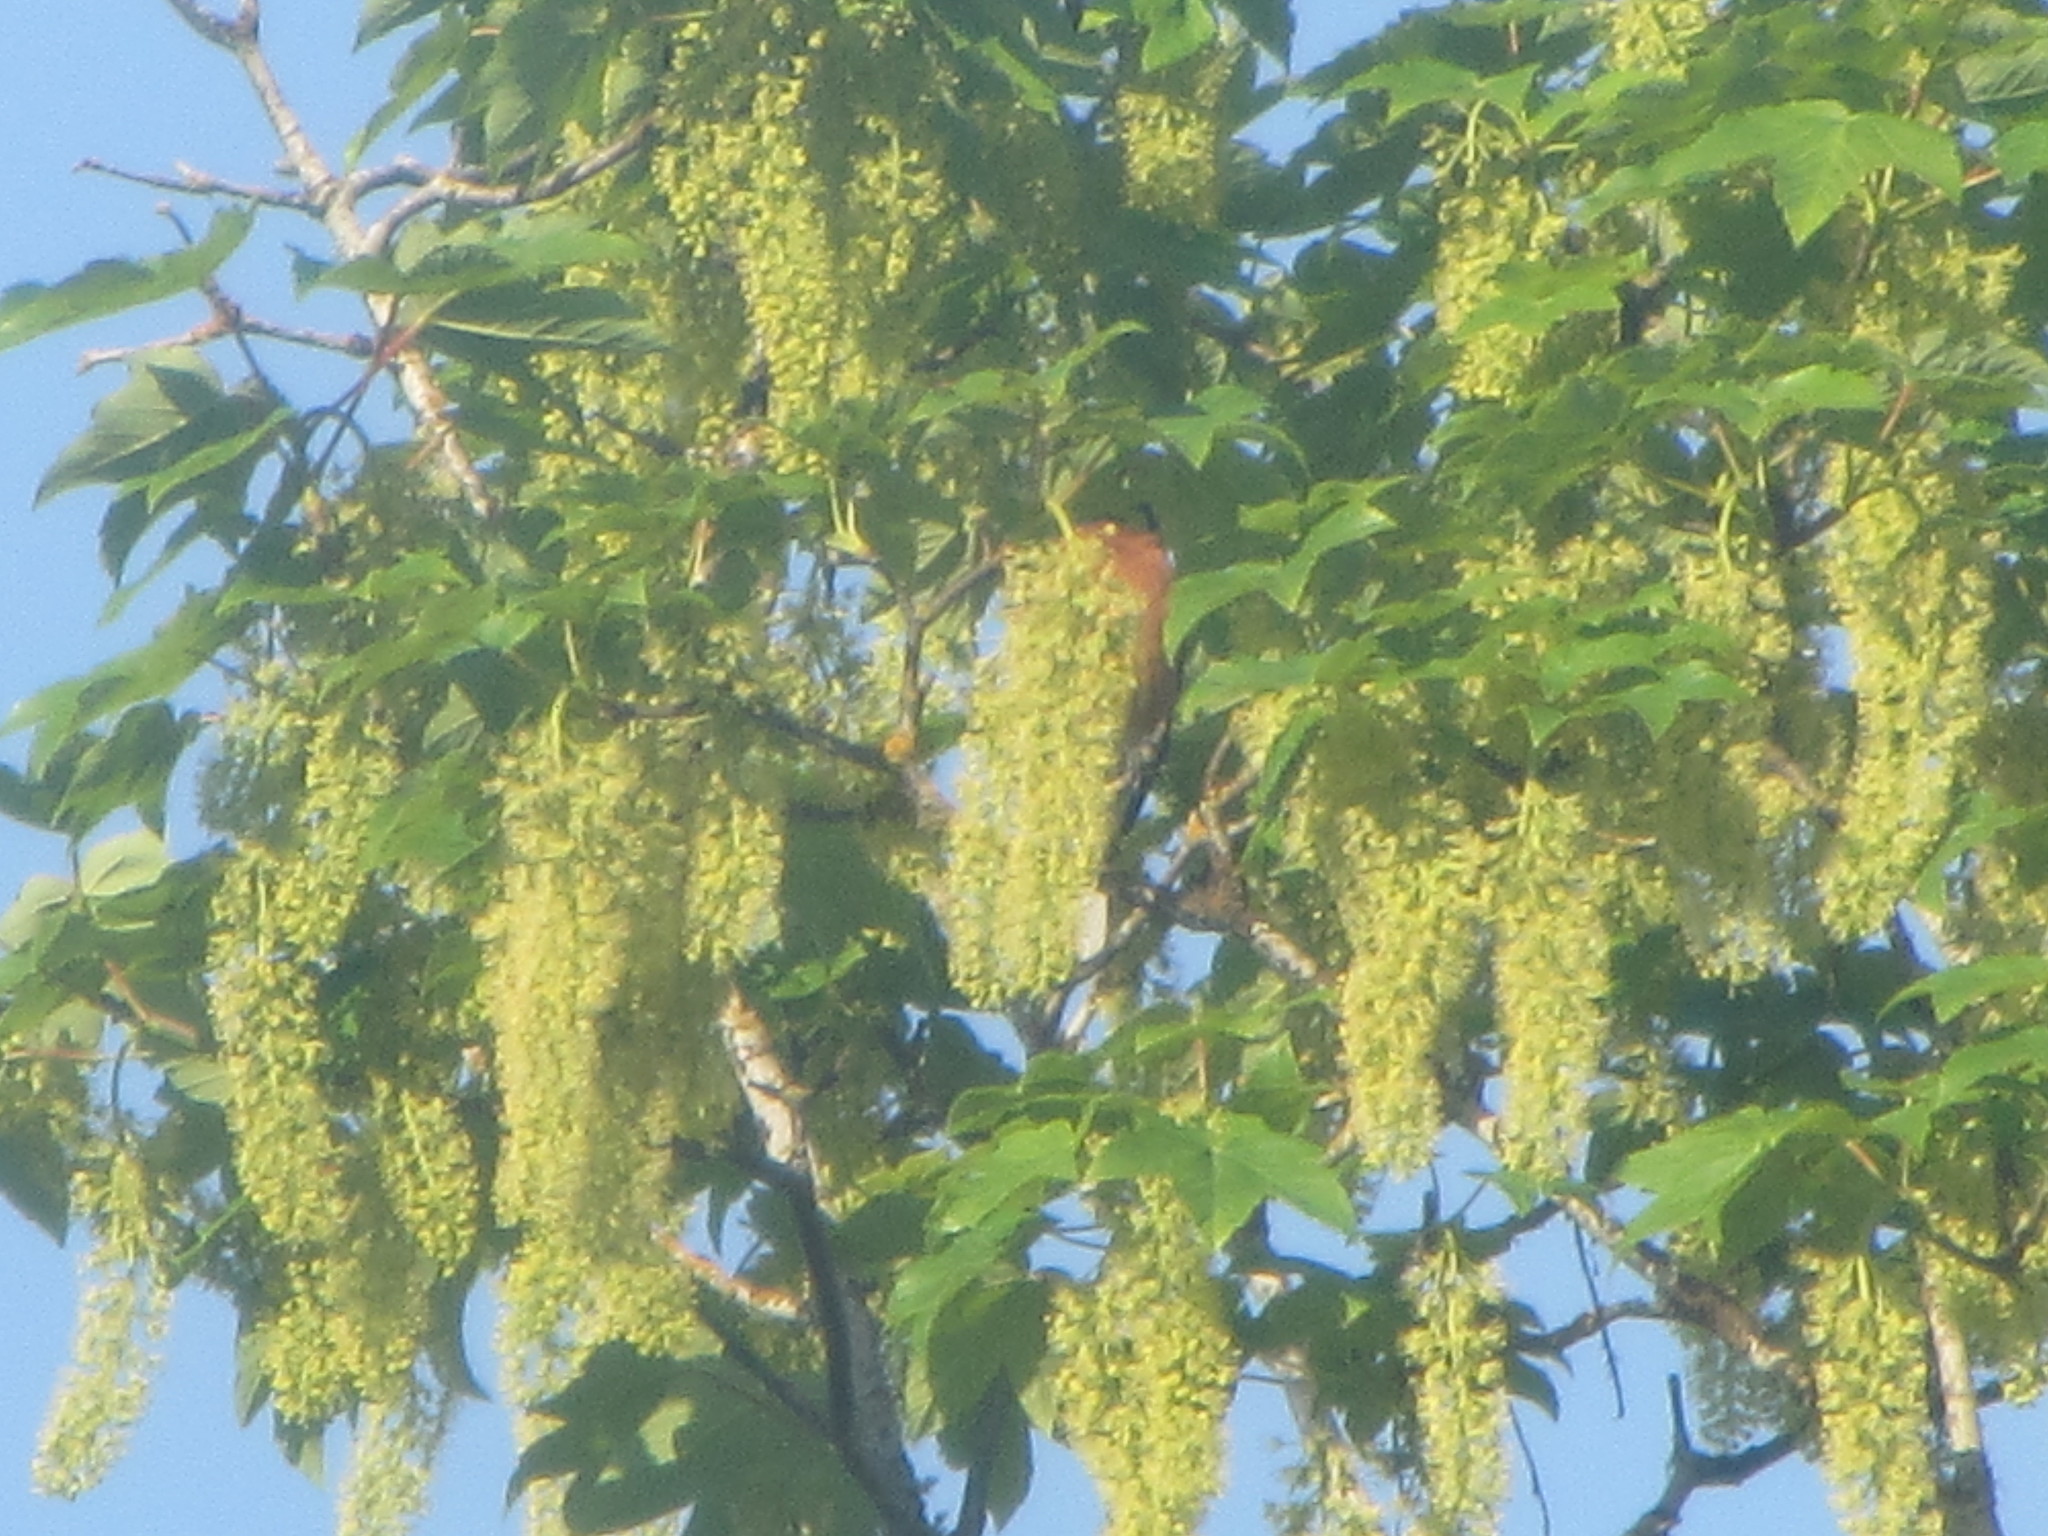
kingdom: Animalia
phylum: Chordata
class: Aves
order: Passeriformes
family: Cardinalidae
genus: Pheucticus
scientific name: Pheucticus melanocephalus
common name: Black-headed grosbeak
